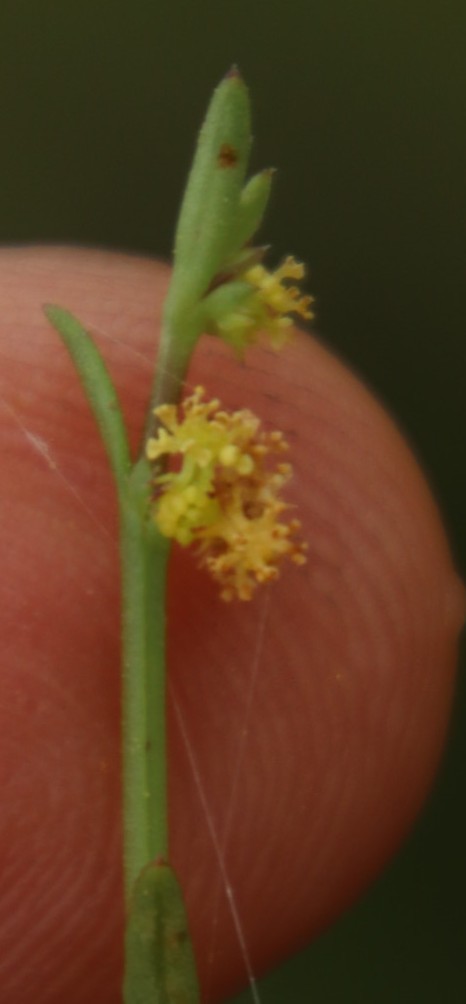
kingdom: Plantae
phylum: Tracheophyta
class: Magnoliopsida
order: Malpighiales
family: Euphorbiaceae
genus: Adenocline
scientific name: Adenocline pauciflora
